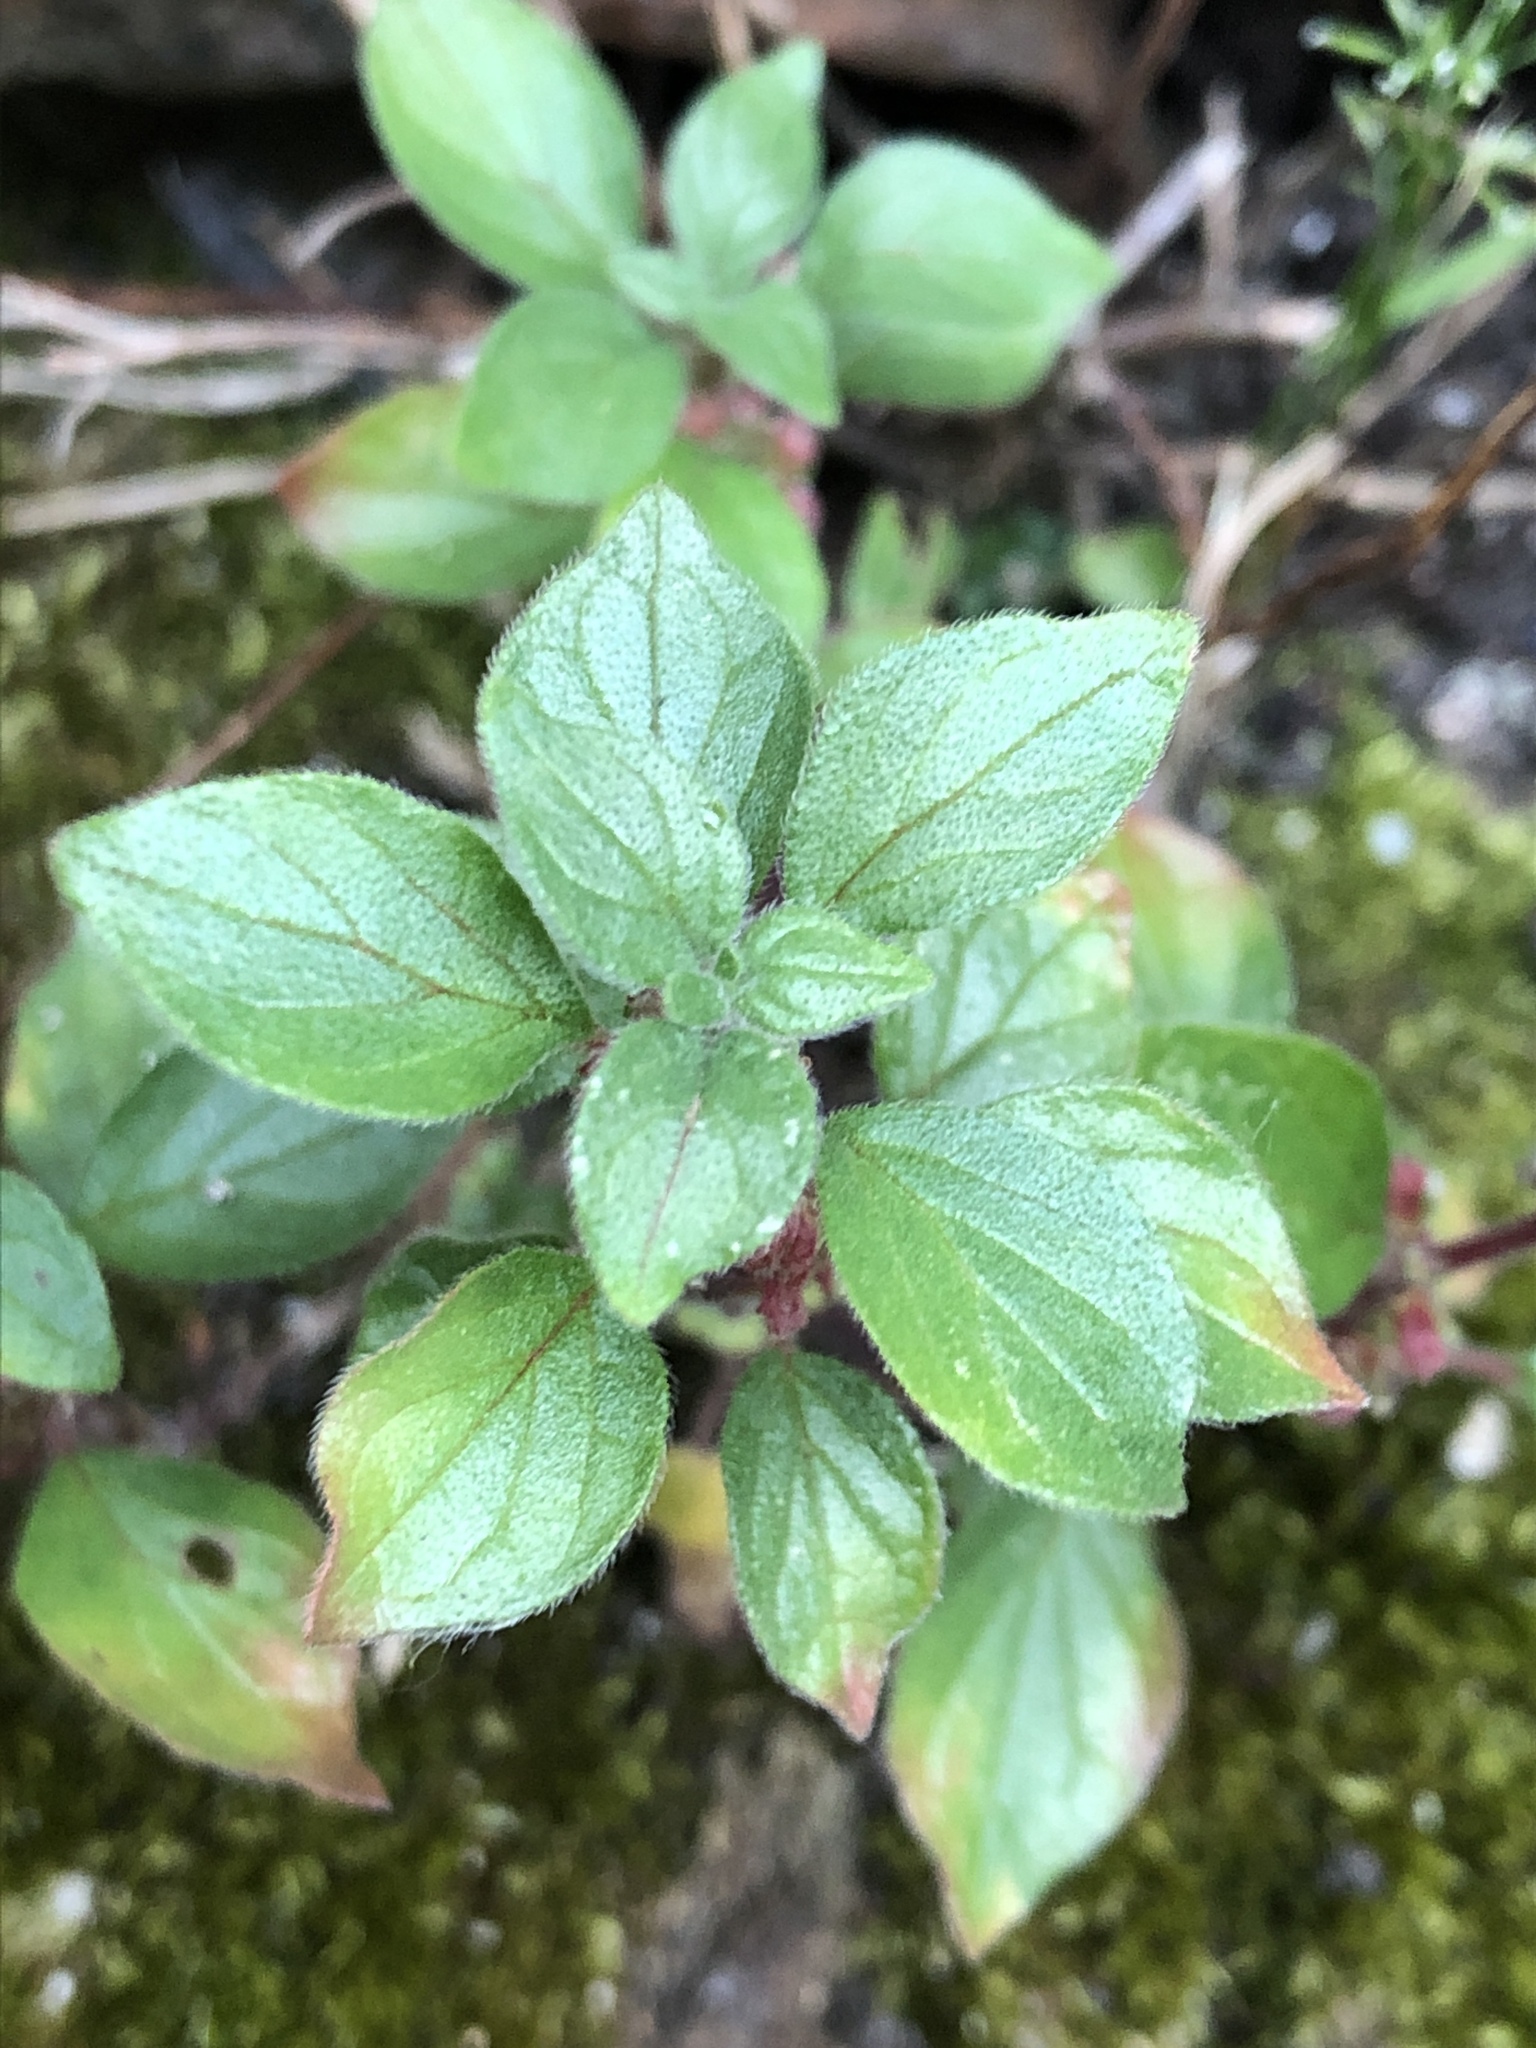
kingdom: Plantae
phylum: Tracheophyta
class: Magnoliopsida
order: Rosales
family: Urticaceae
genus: Parietaria
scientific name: Parietaria judaica
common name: Pellitory-of-the-wall
